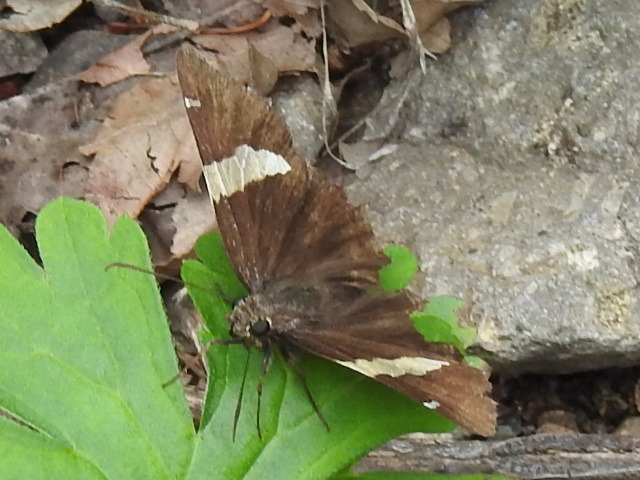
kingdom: Animalia
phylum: Arthropoda
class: Arachnida
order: Scorpiones
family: Bothriuridae
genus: Telegonus
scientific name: Telegonus cellus
